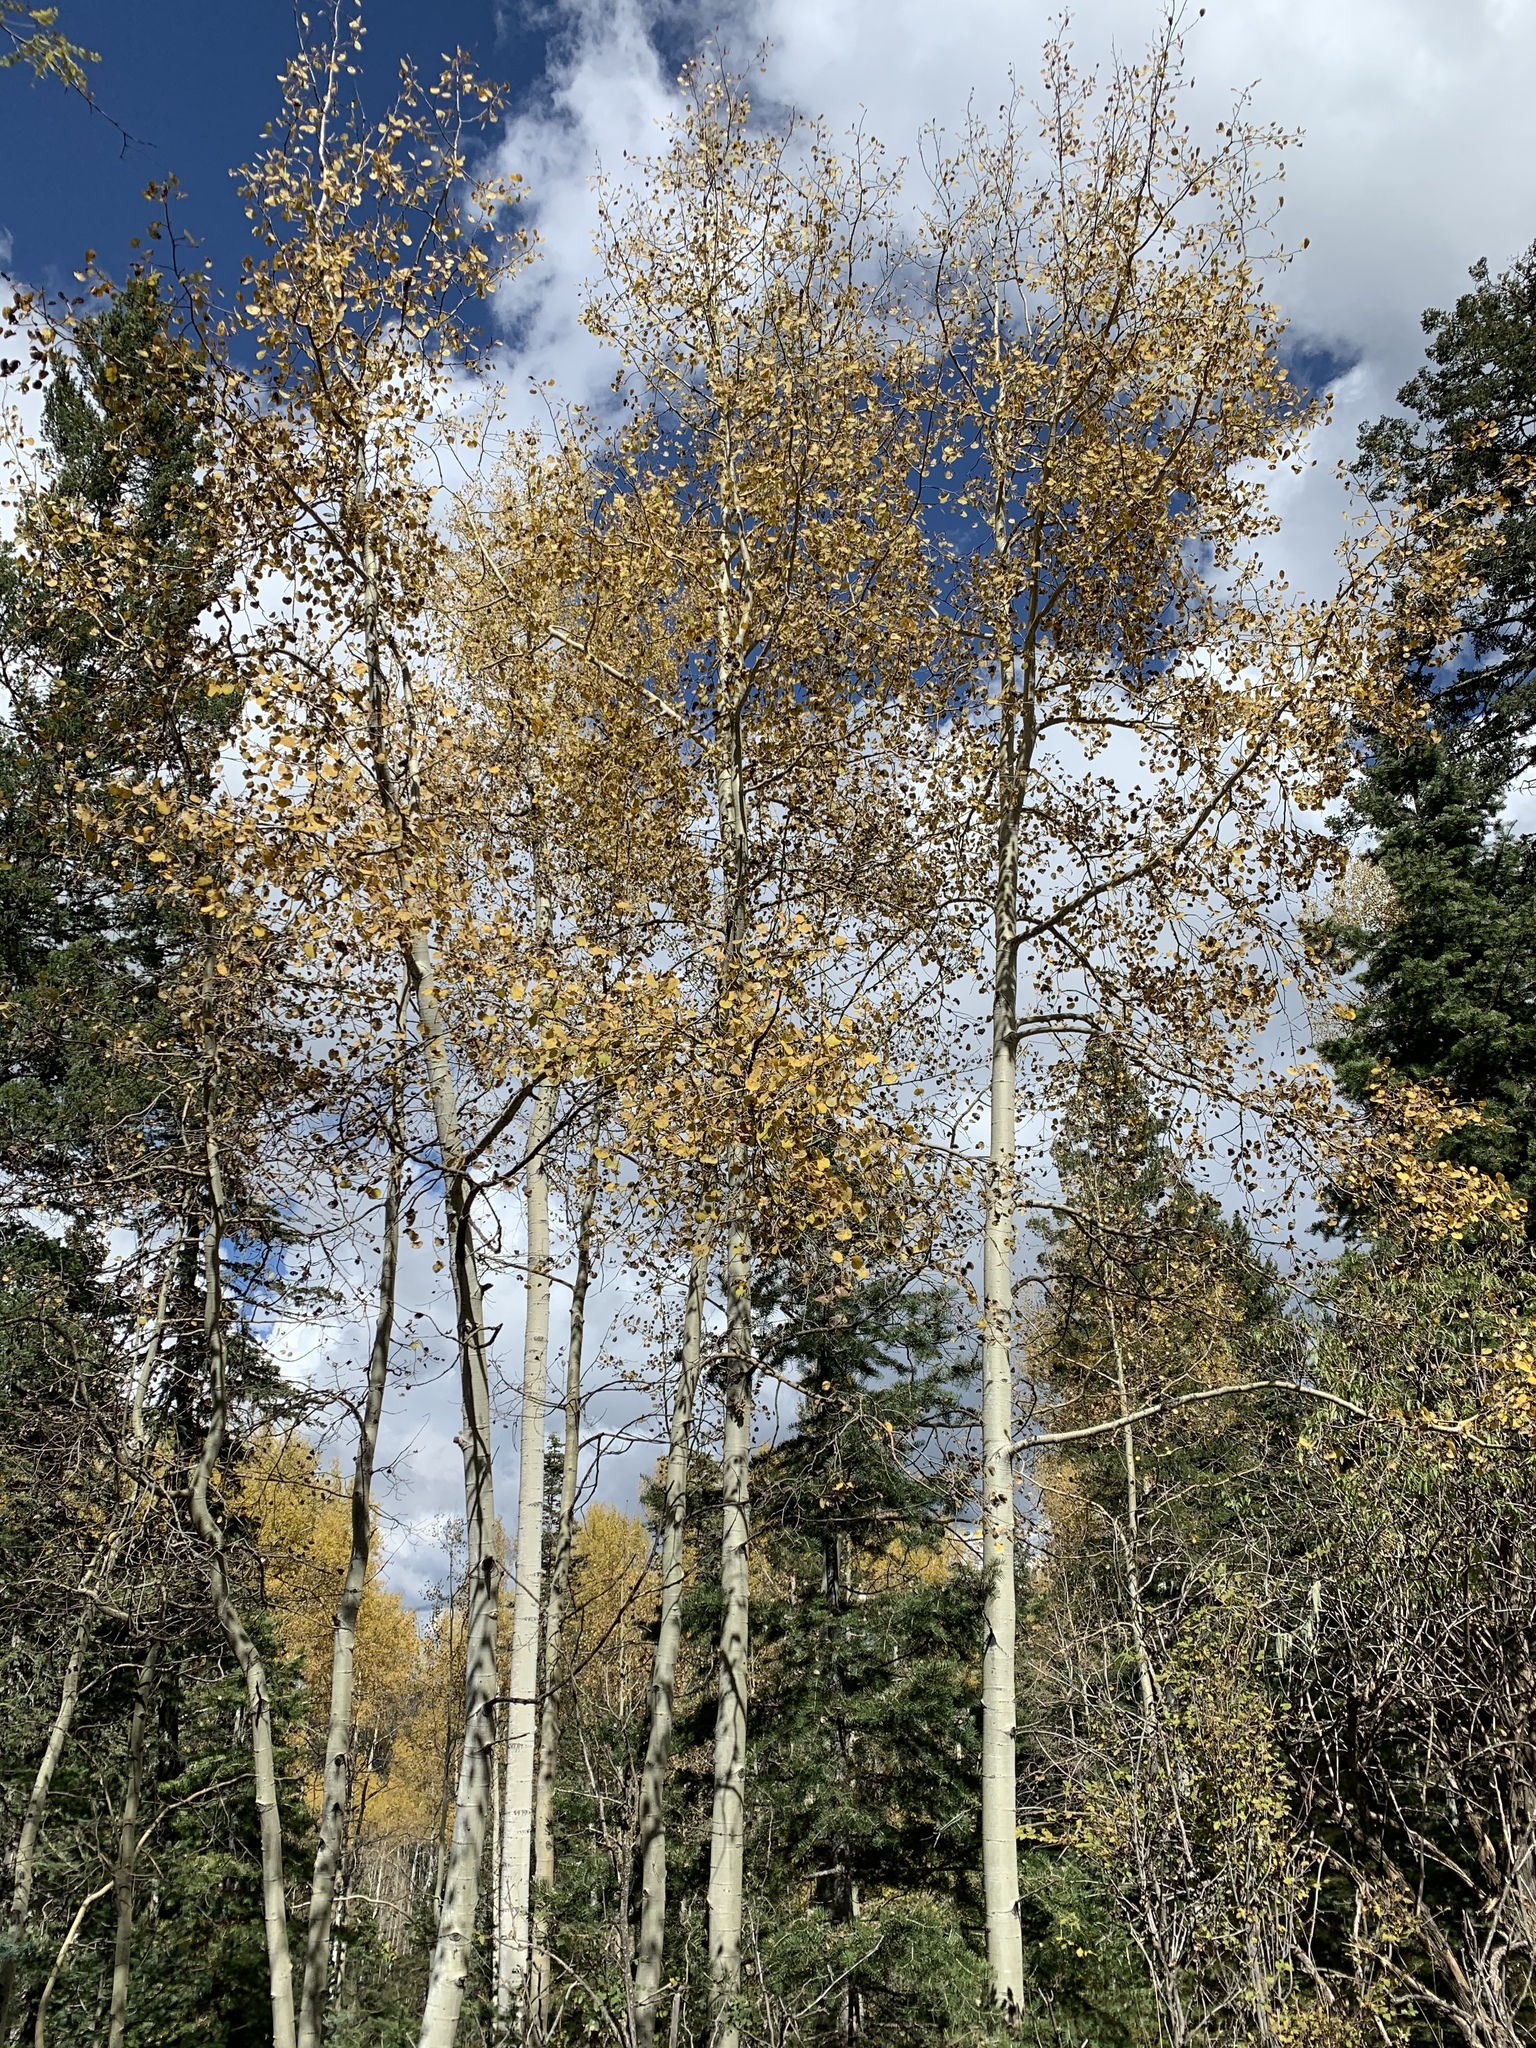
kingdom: Plantae
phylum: Tracheophyta
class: Magnoliopsida
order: Malpighiales
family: Salicaceae
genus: Populus
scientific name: Populus tremuloides
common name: Quaking aspen
